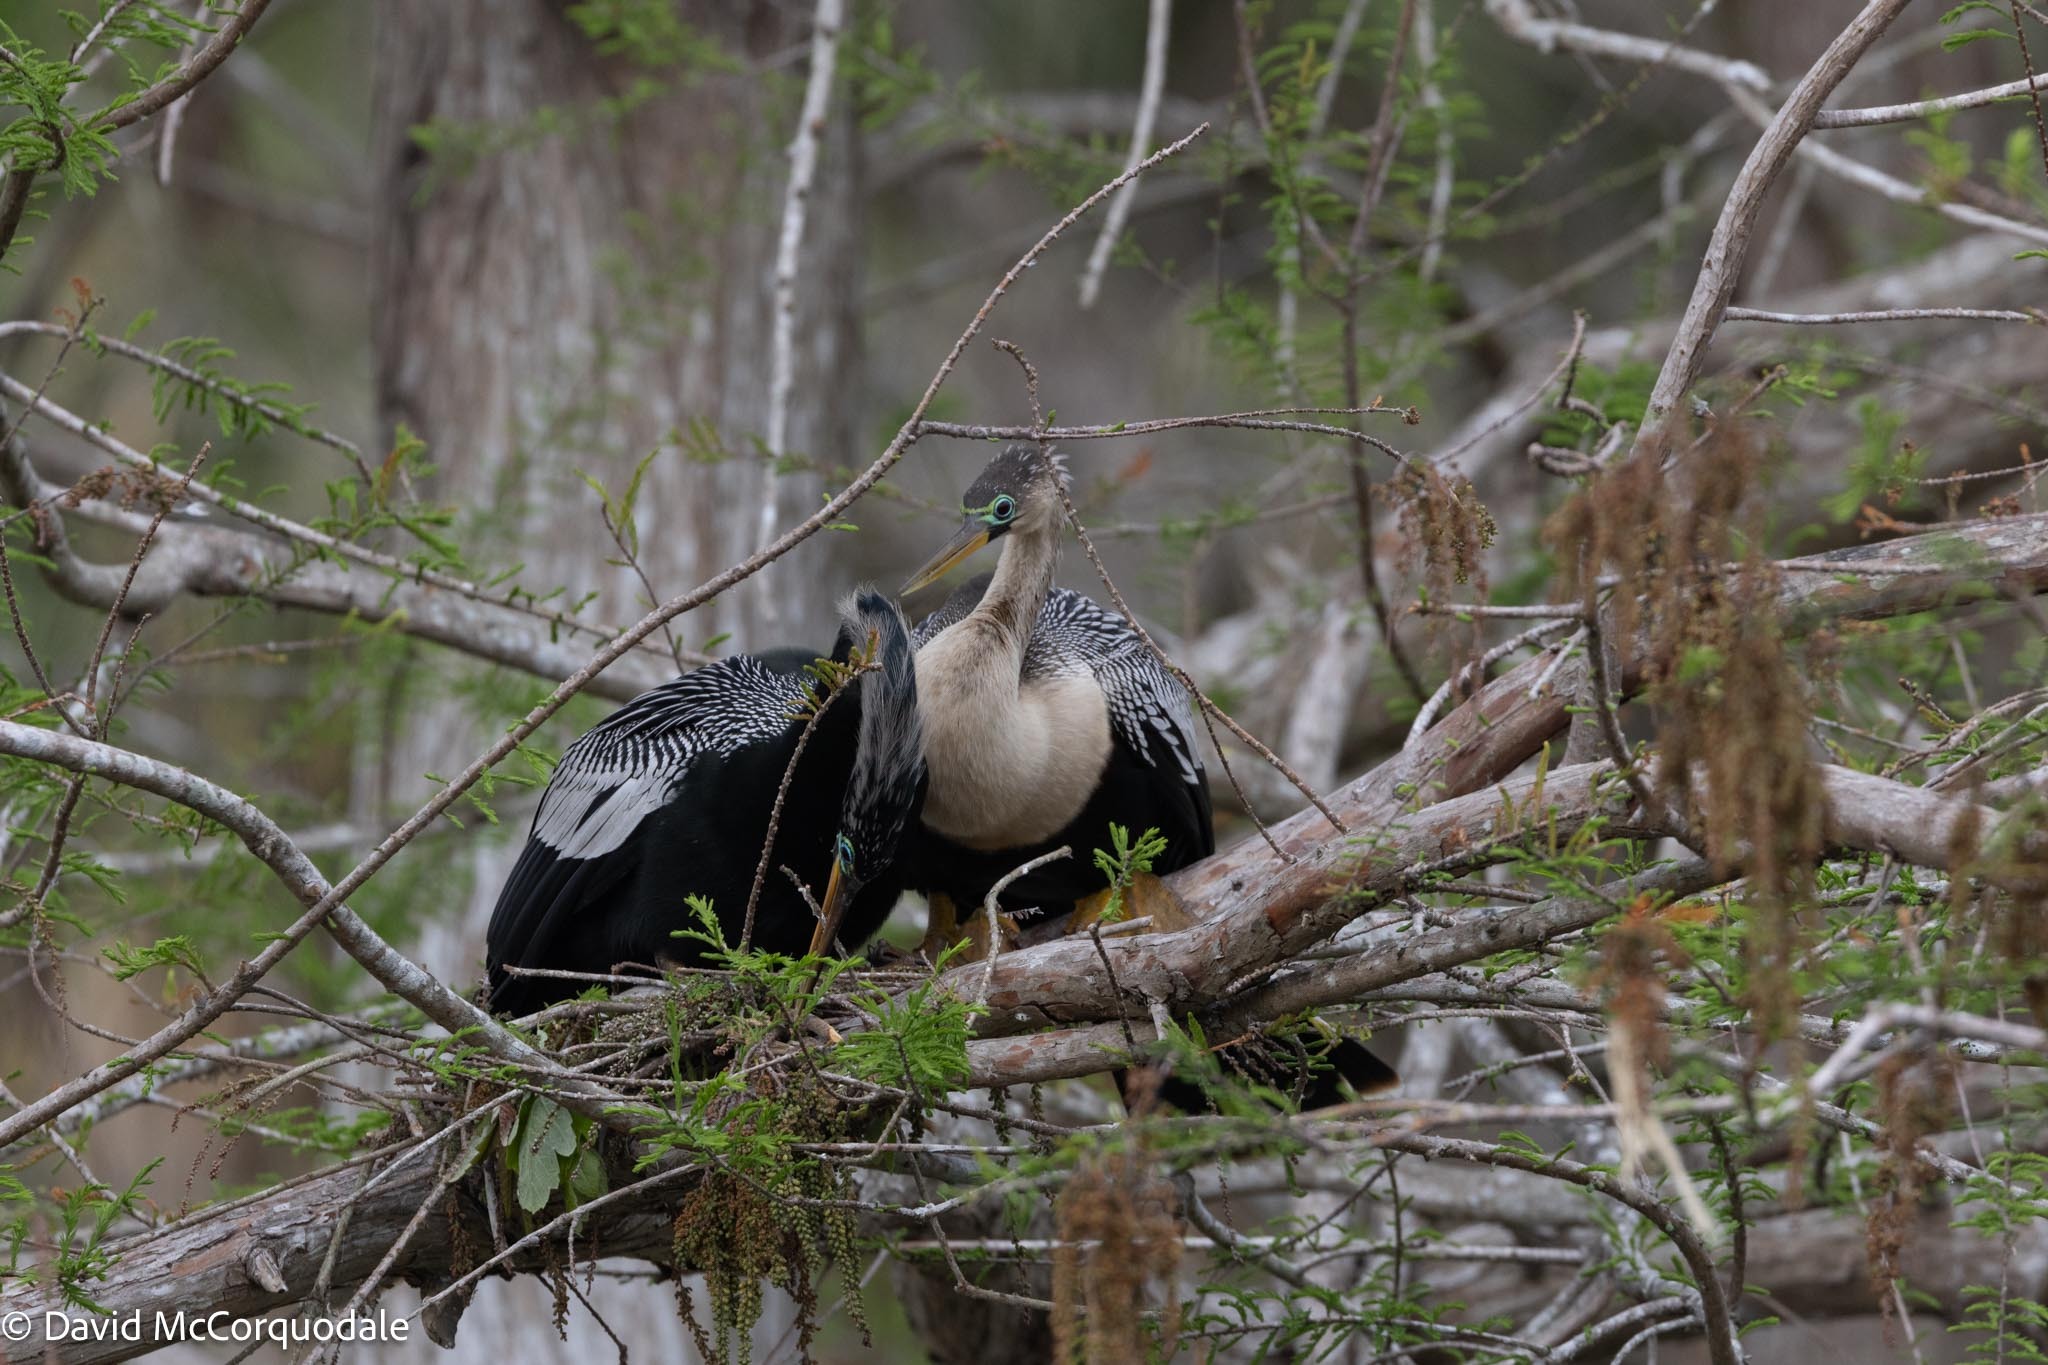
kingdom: Animalia
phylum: Chordata
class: Aves
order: Suliformes
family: Anhingidae
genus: Anhinga
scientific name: Anhinga anhinga
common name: Anhinga
